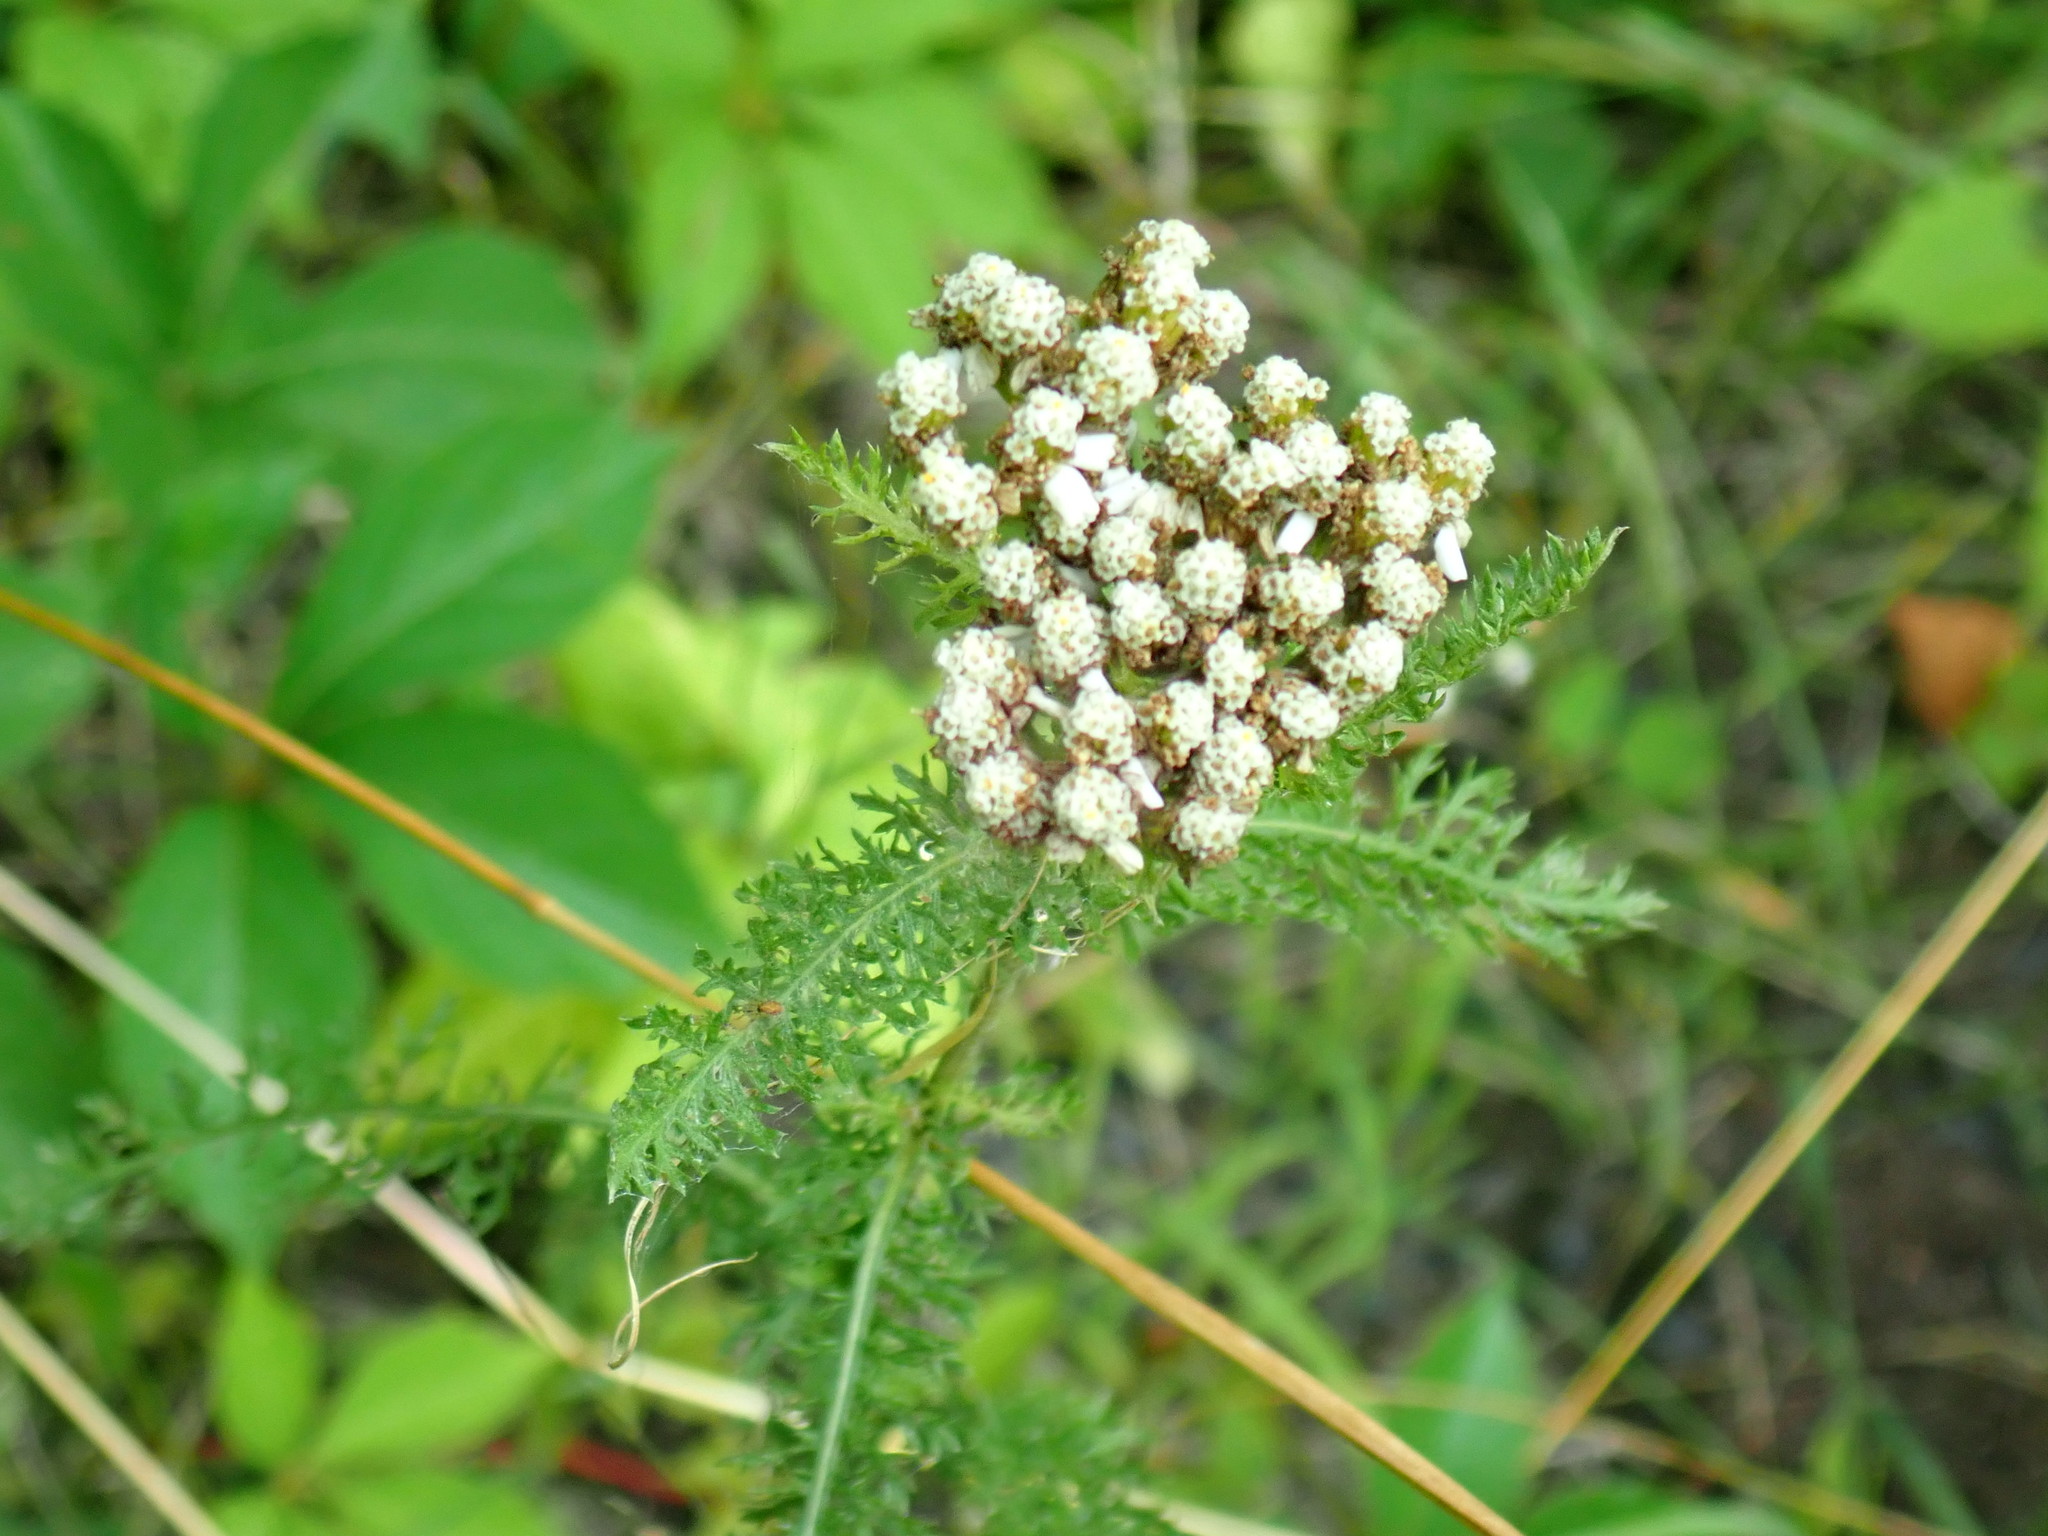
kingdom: Plantae
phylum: Tracheophyta
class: Magnoliopsida
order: Asterales
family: Asteraceae
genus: Achillea
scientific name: Achillea millefolium
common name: Yarrow
